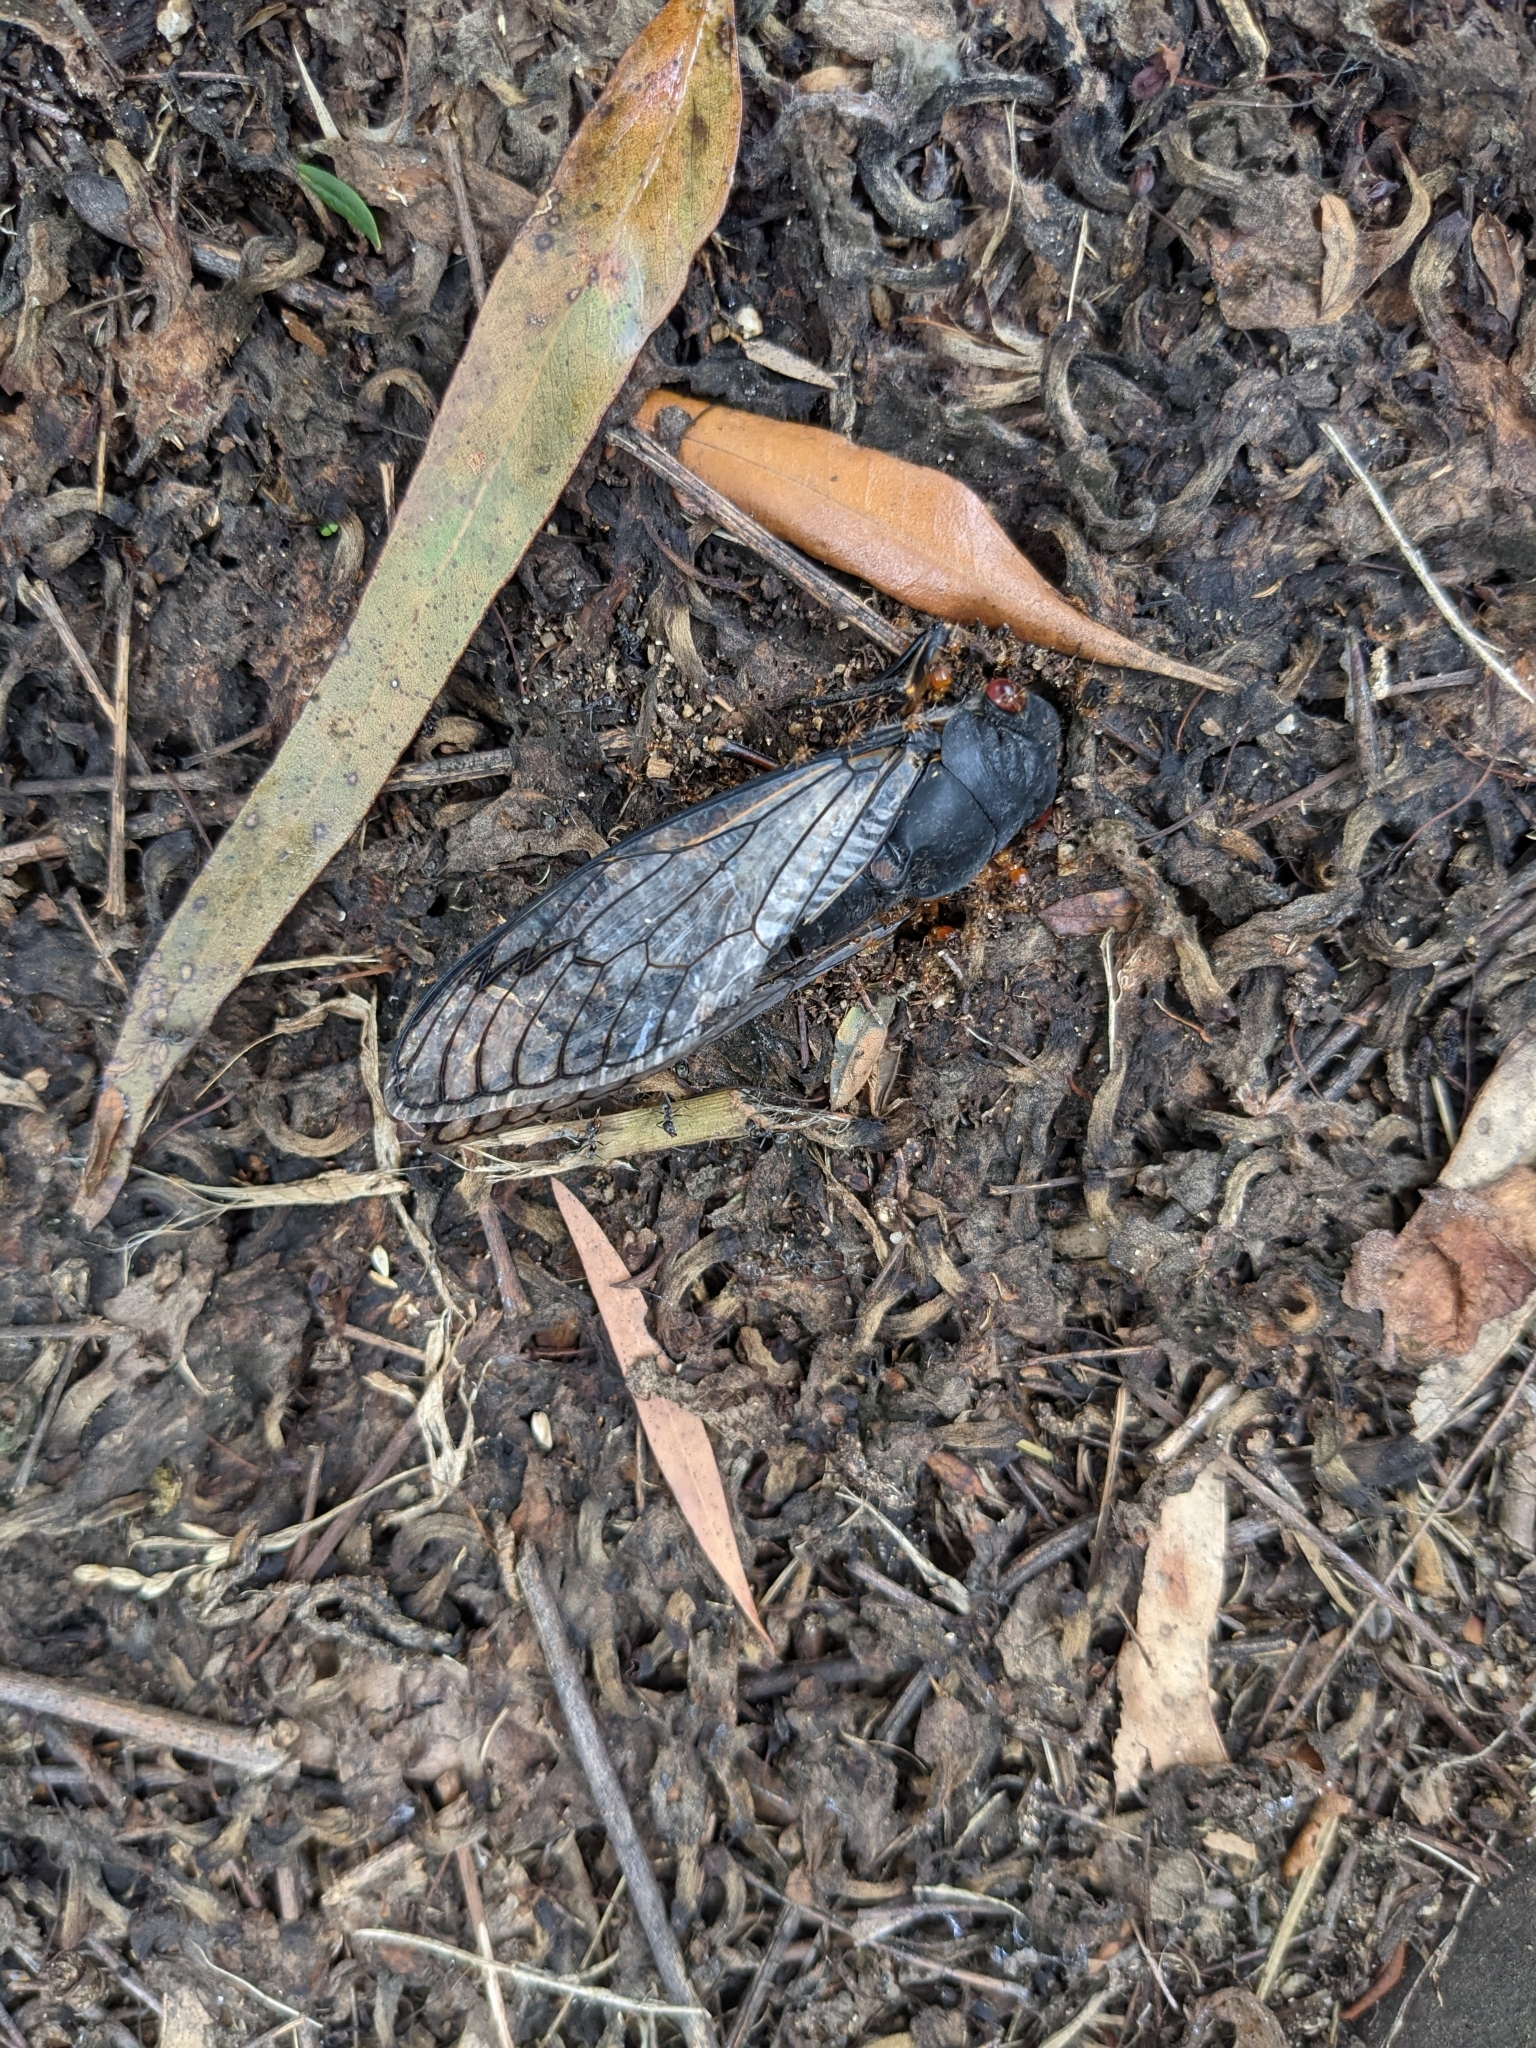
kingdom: Animalia
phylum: Arthropoda
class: Insecta
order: Hemiptera
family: Cicadidae
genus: Psaltoda
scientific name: Psaltoda moerens
